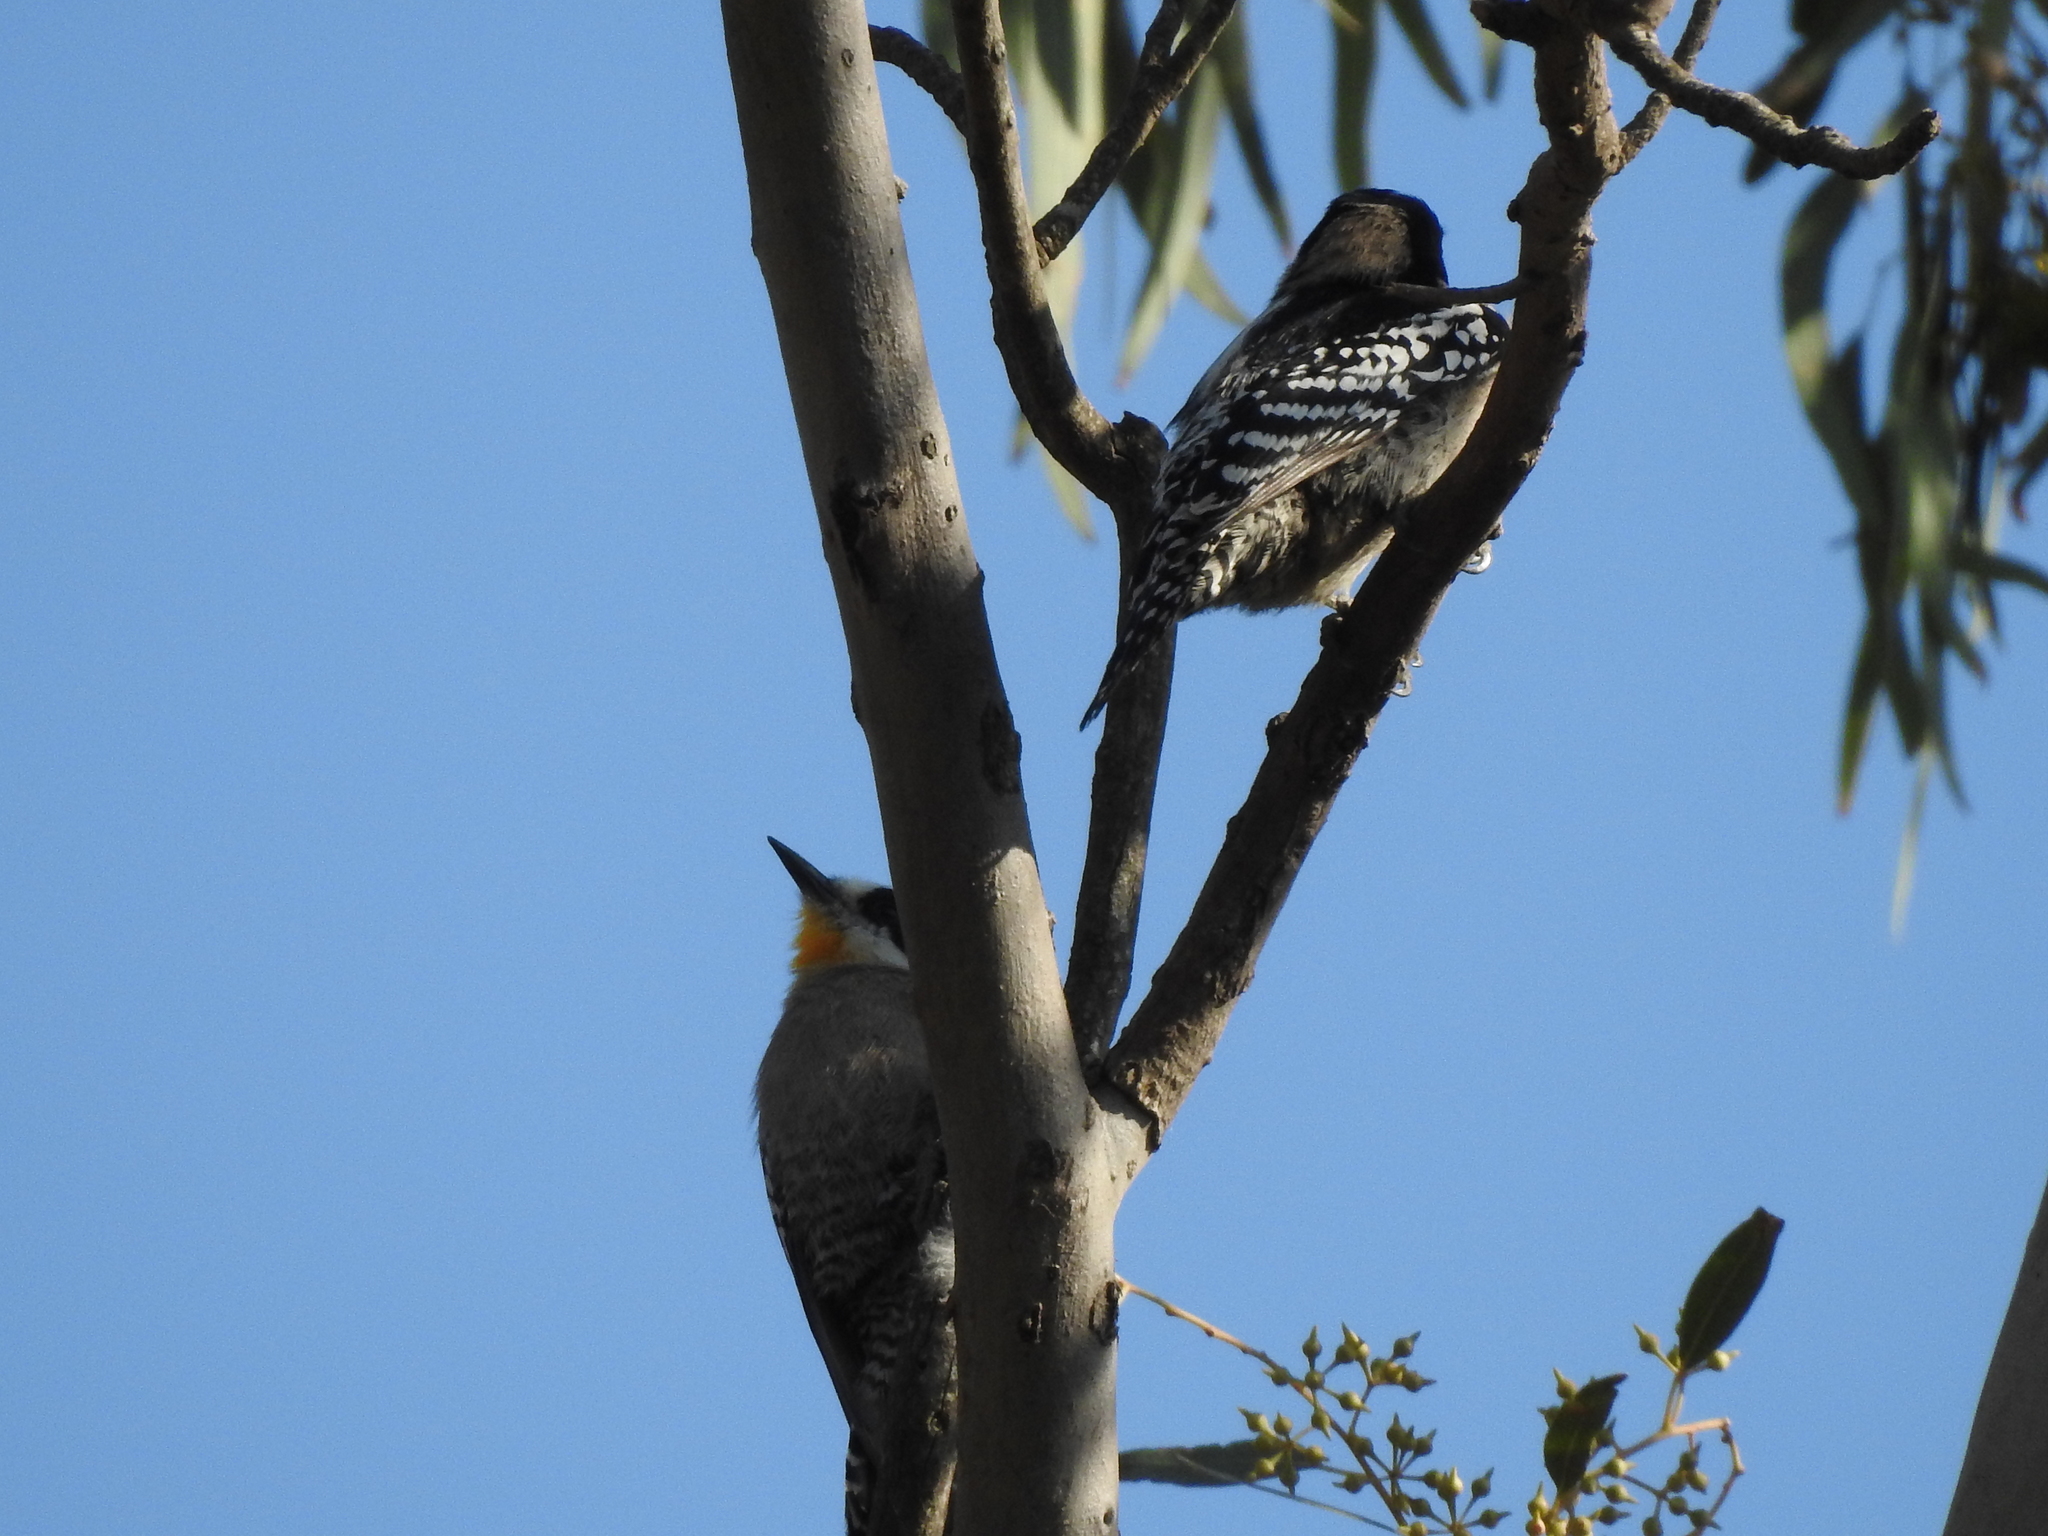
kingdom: Animalia
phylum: Chordata
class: Aves
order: Piciformes
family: Picidae
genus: Melanerpes
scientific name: Melanerpes cactorum
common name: White-fronted woodpecker
